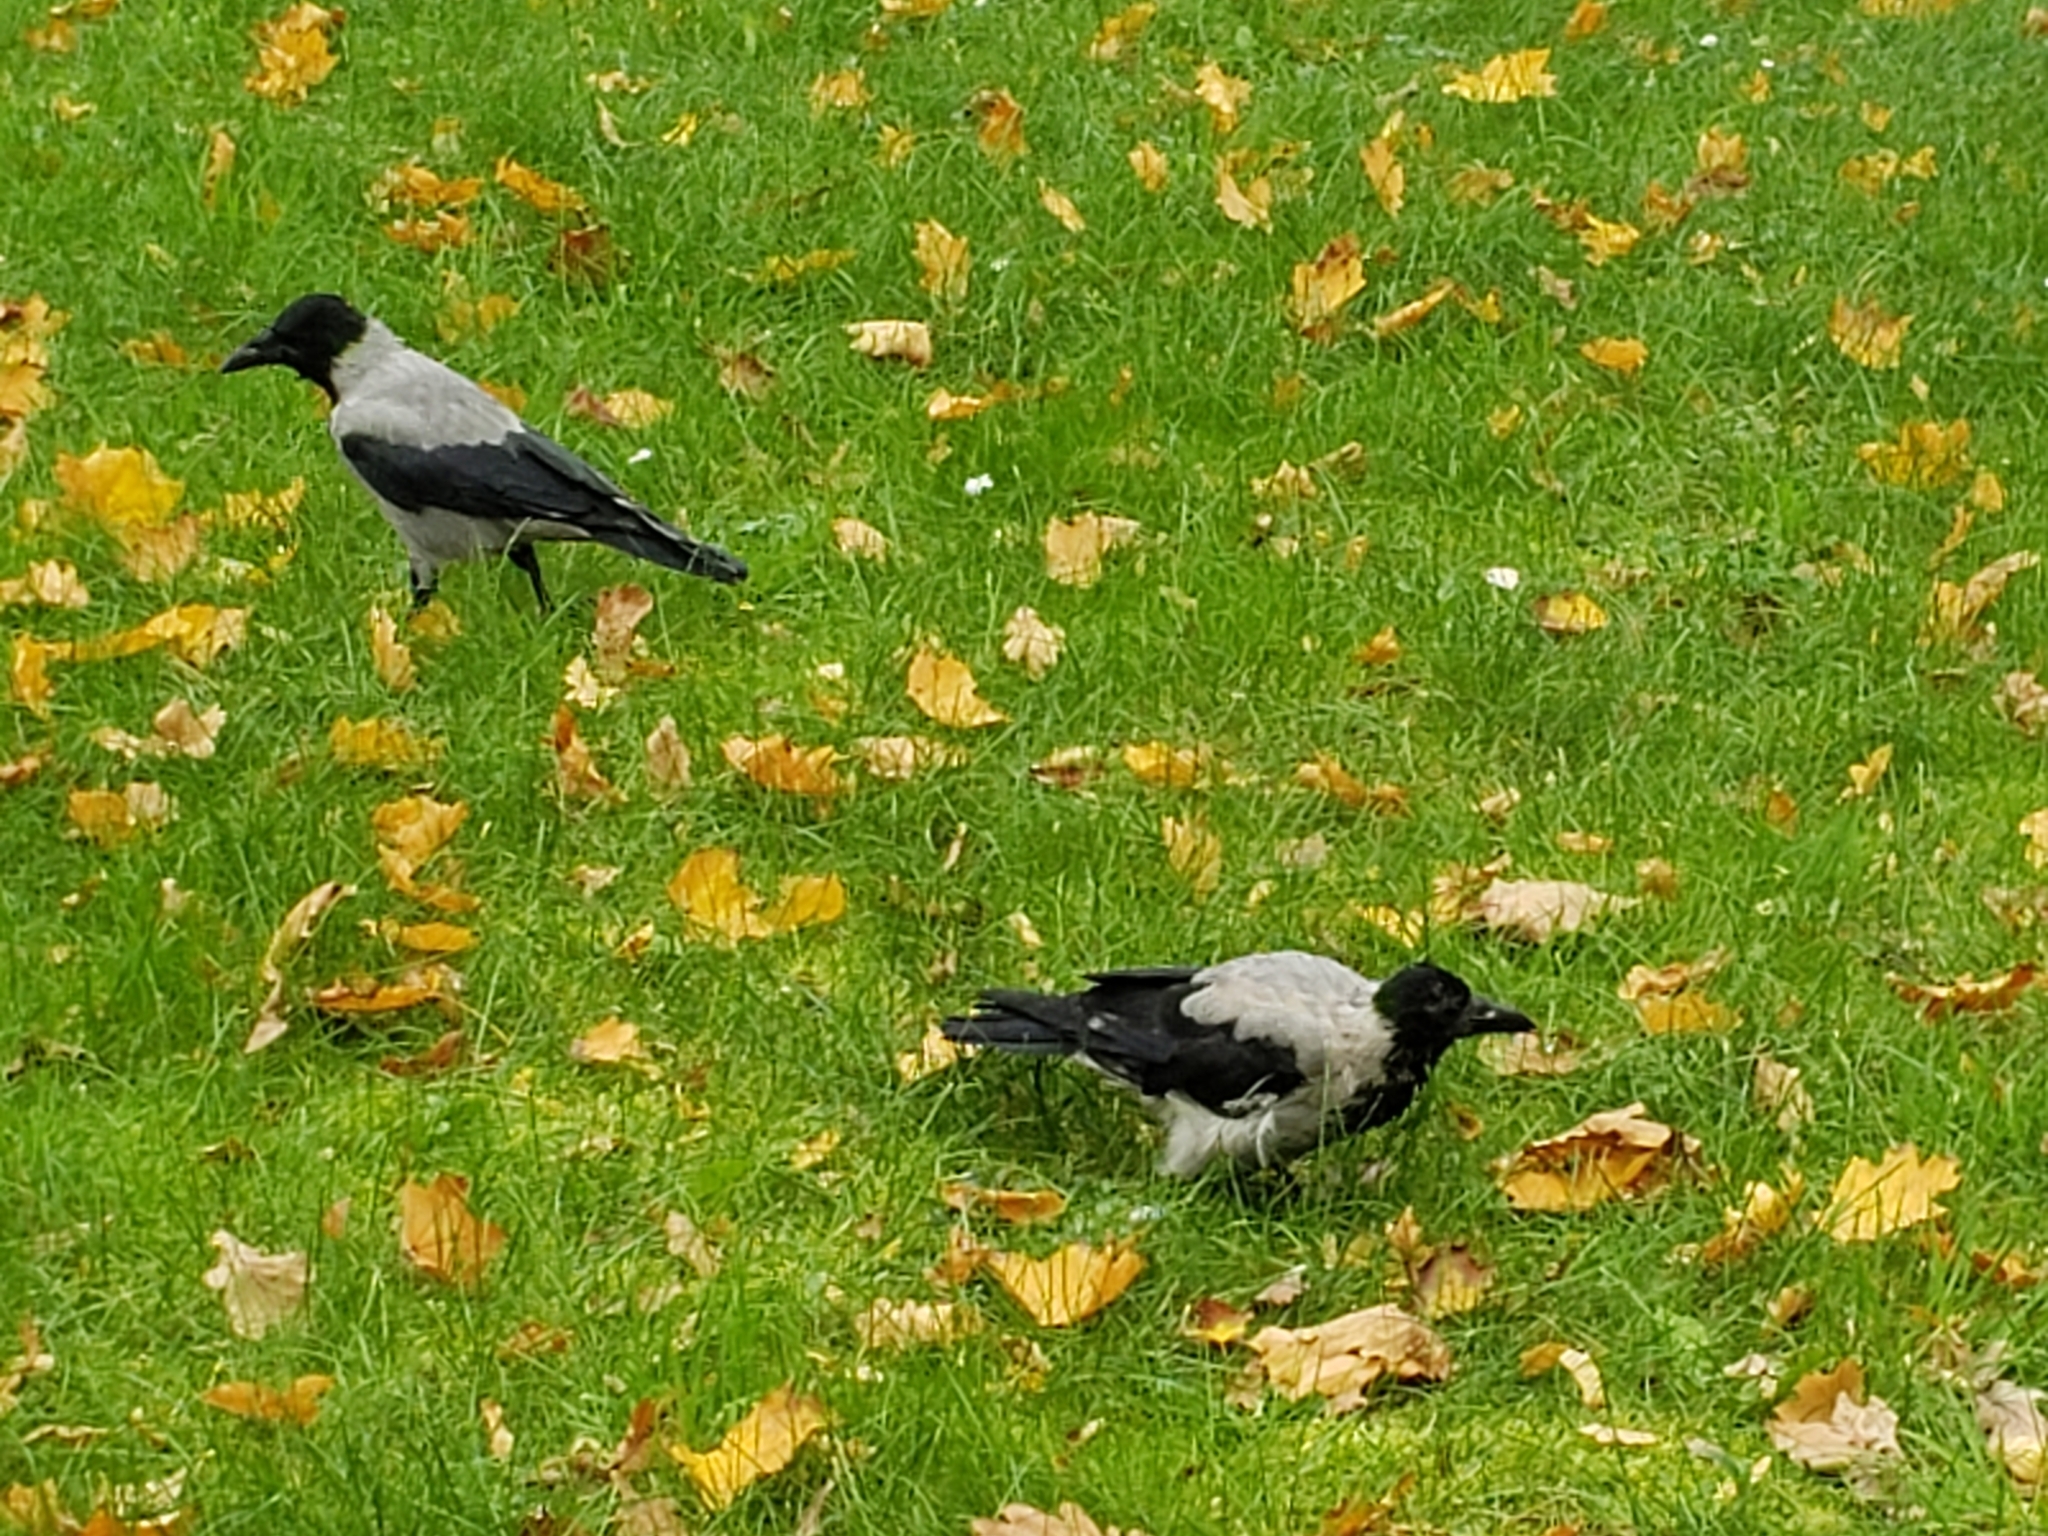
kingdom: Animalia
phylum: Chordata
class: Aves
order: Passeriformes
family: Corvidae
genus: Corvus
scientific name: Corvus cornix
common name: Hooded crow
